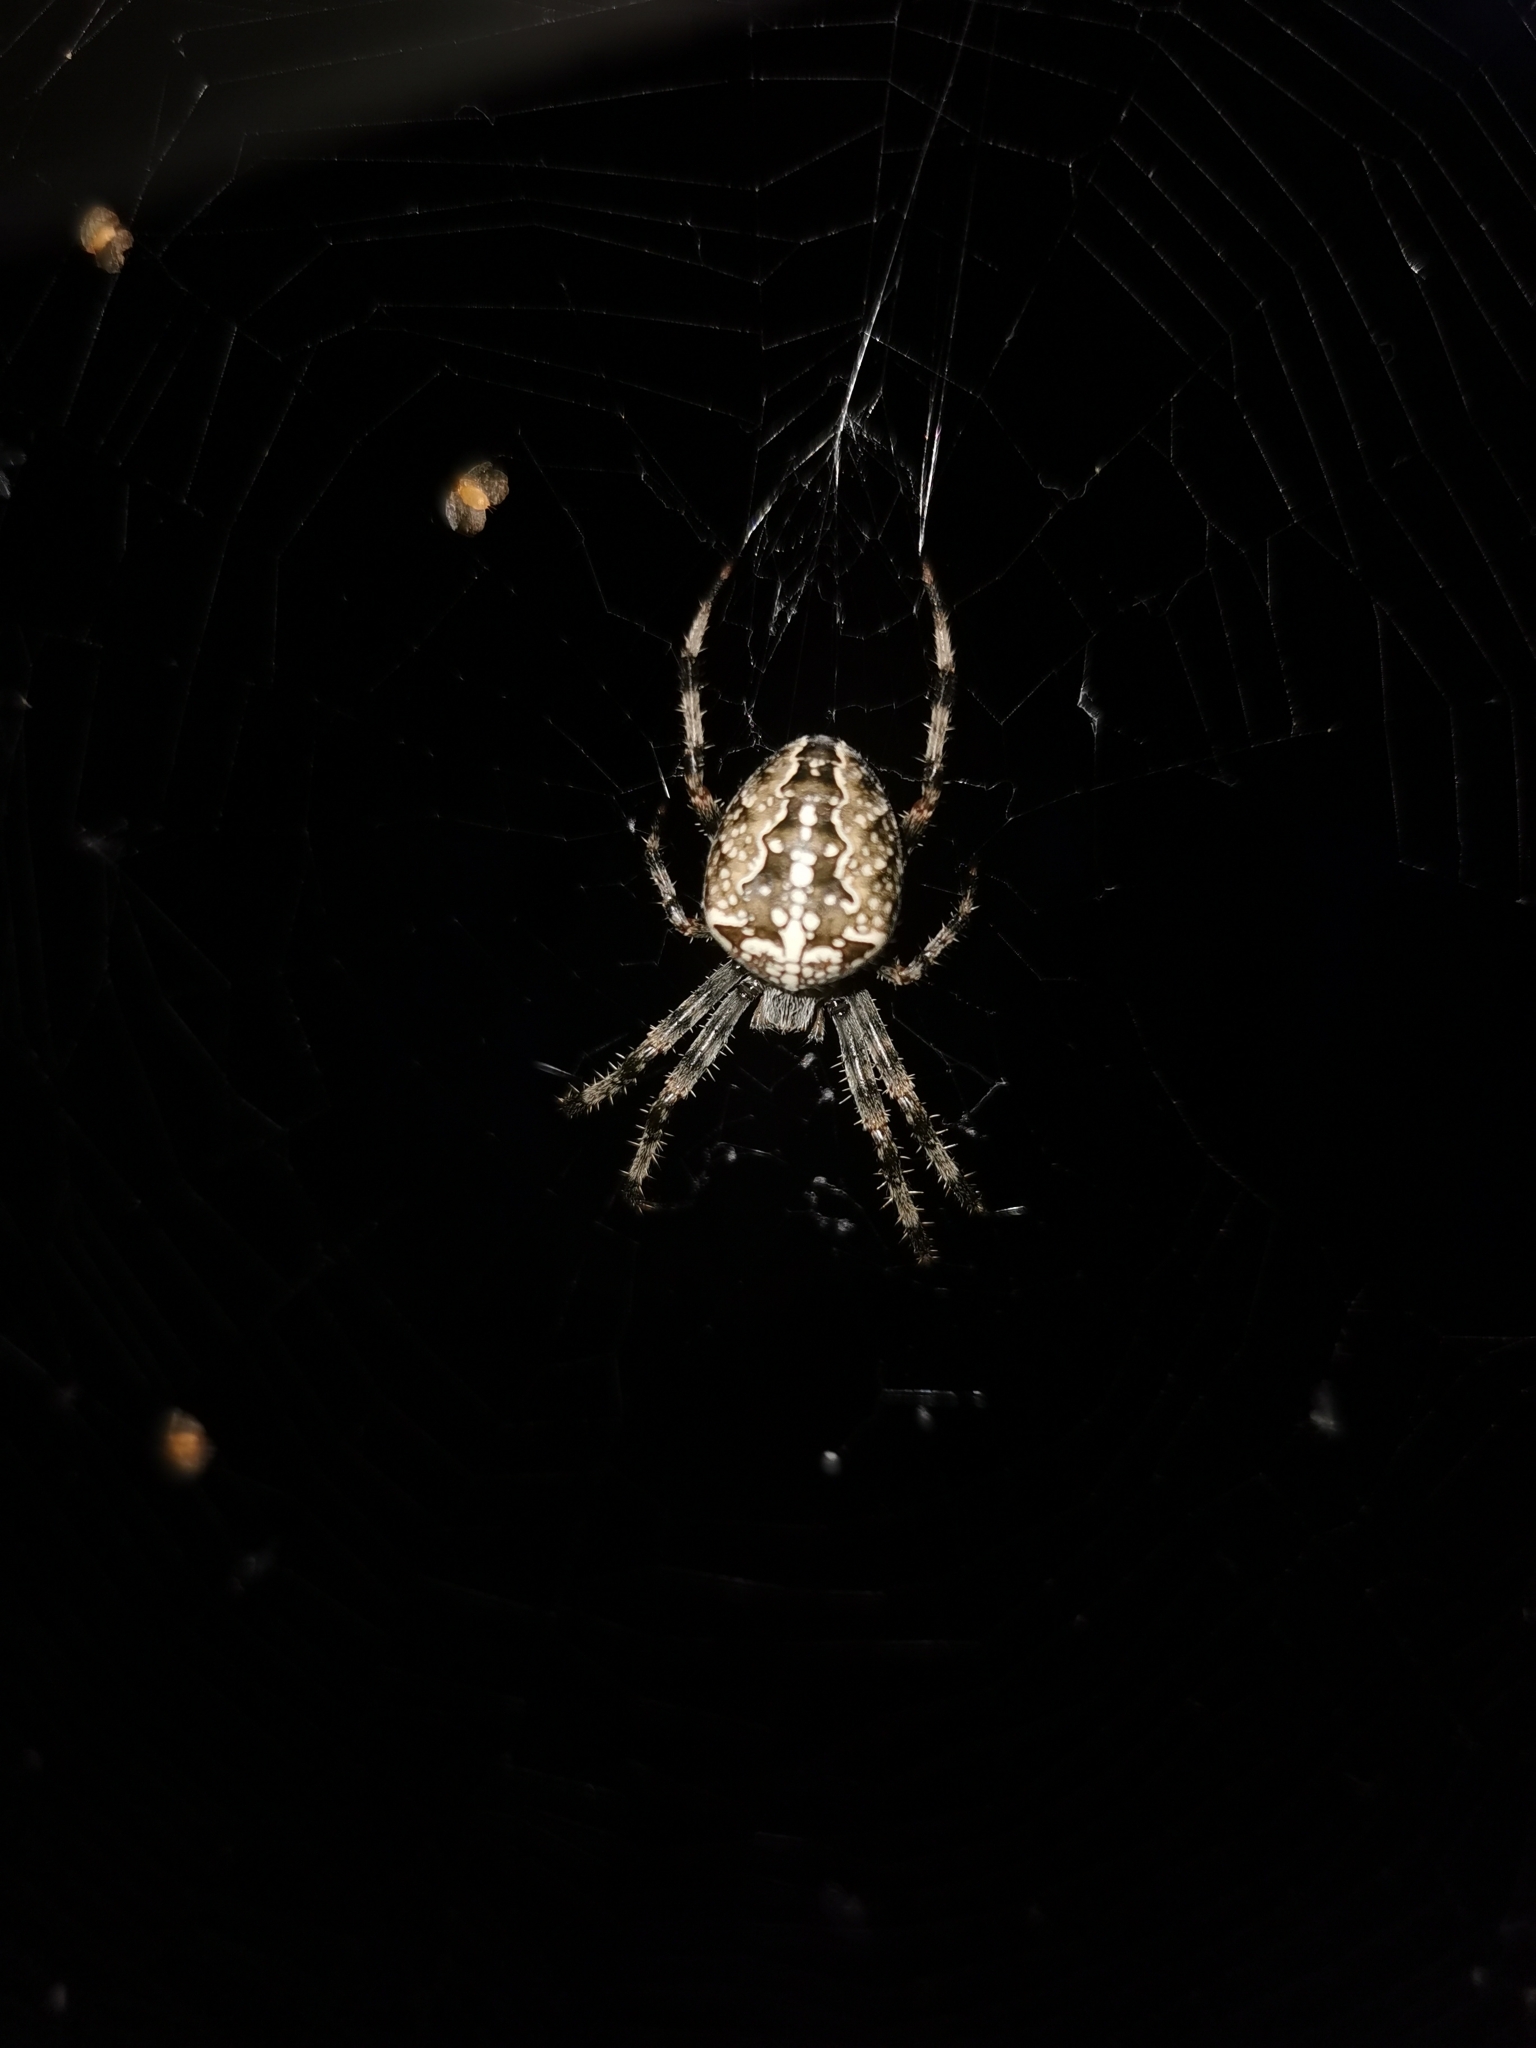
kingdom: Animalia
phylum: Arthropoda
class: Arachnida
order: Araneae
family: Araneidae
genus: Araneus
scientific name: Araneus diadematus
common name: Cross orbweaver
